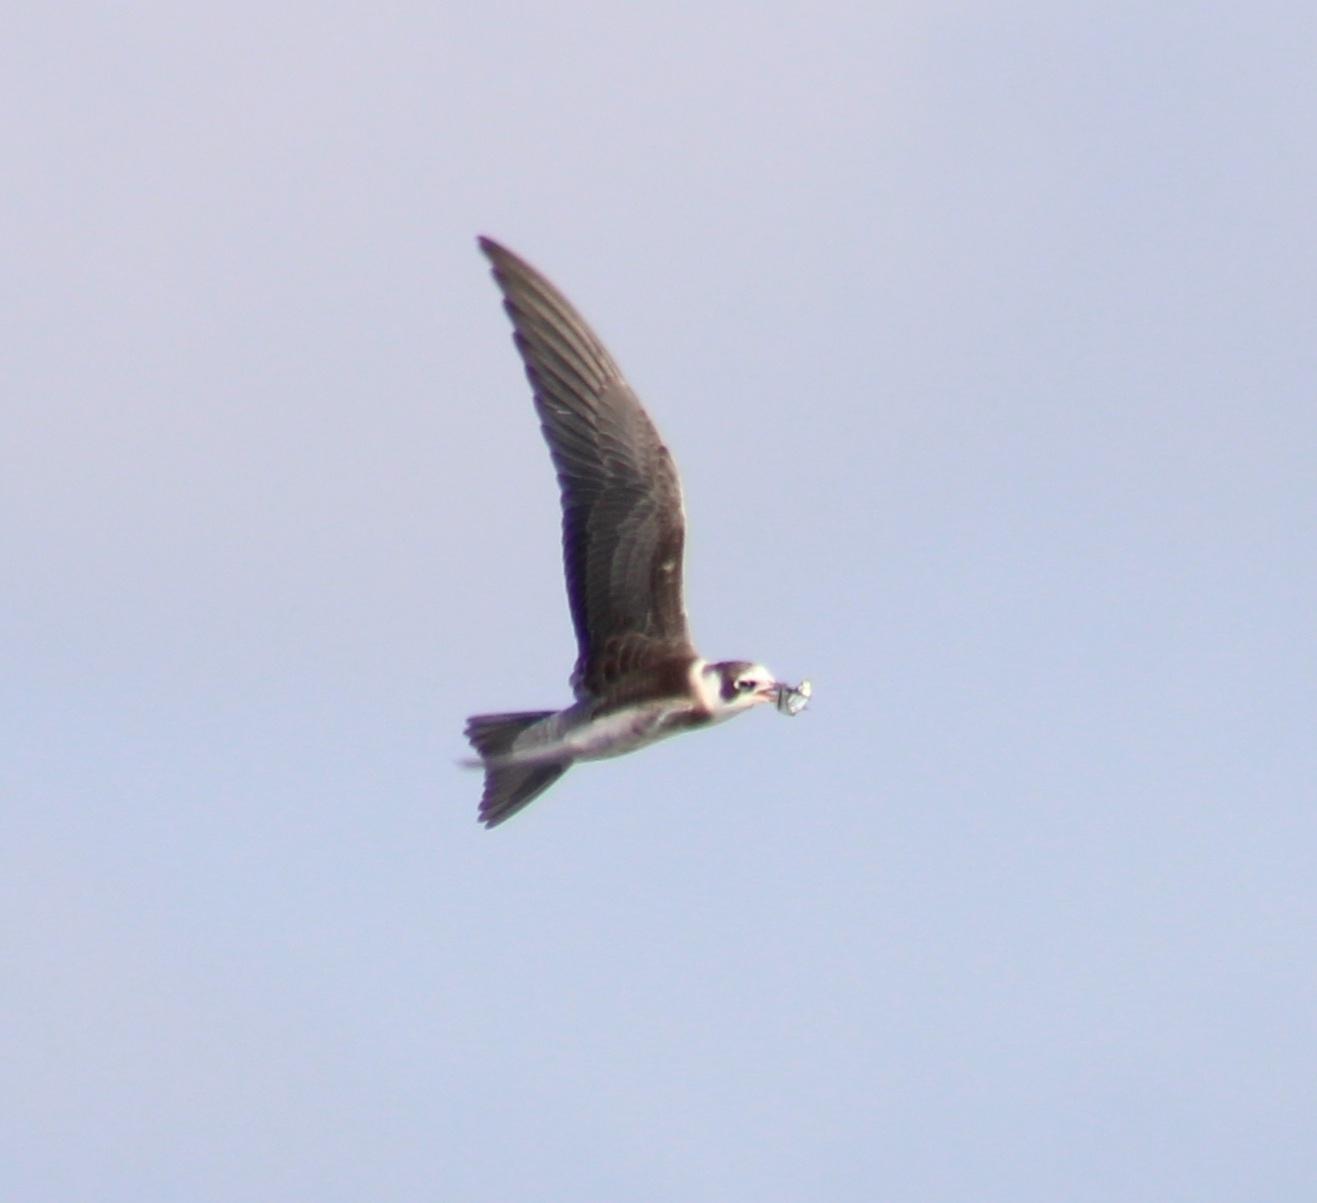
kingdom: Animalia
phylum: Chordata
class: Aves
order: Charadriiformes
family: Laridae
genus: Chlidonias
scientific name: Chlidonias niger
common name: Black tern
